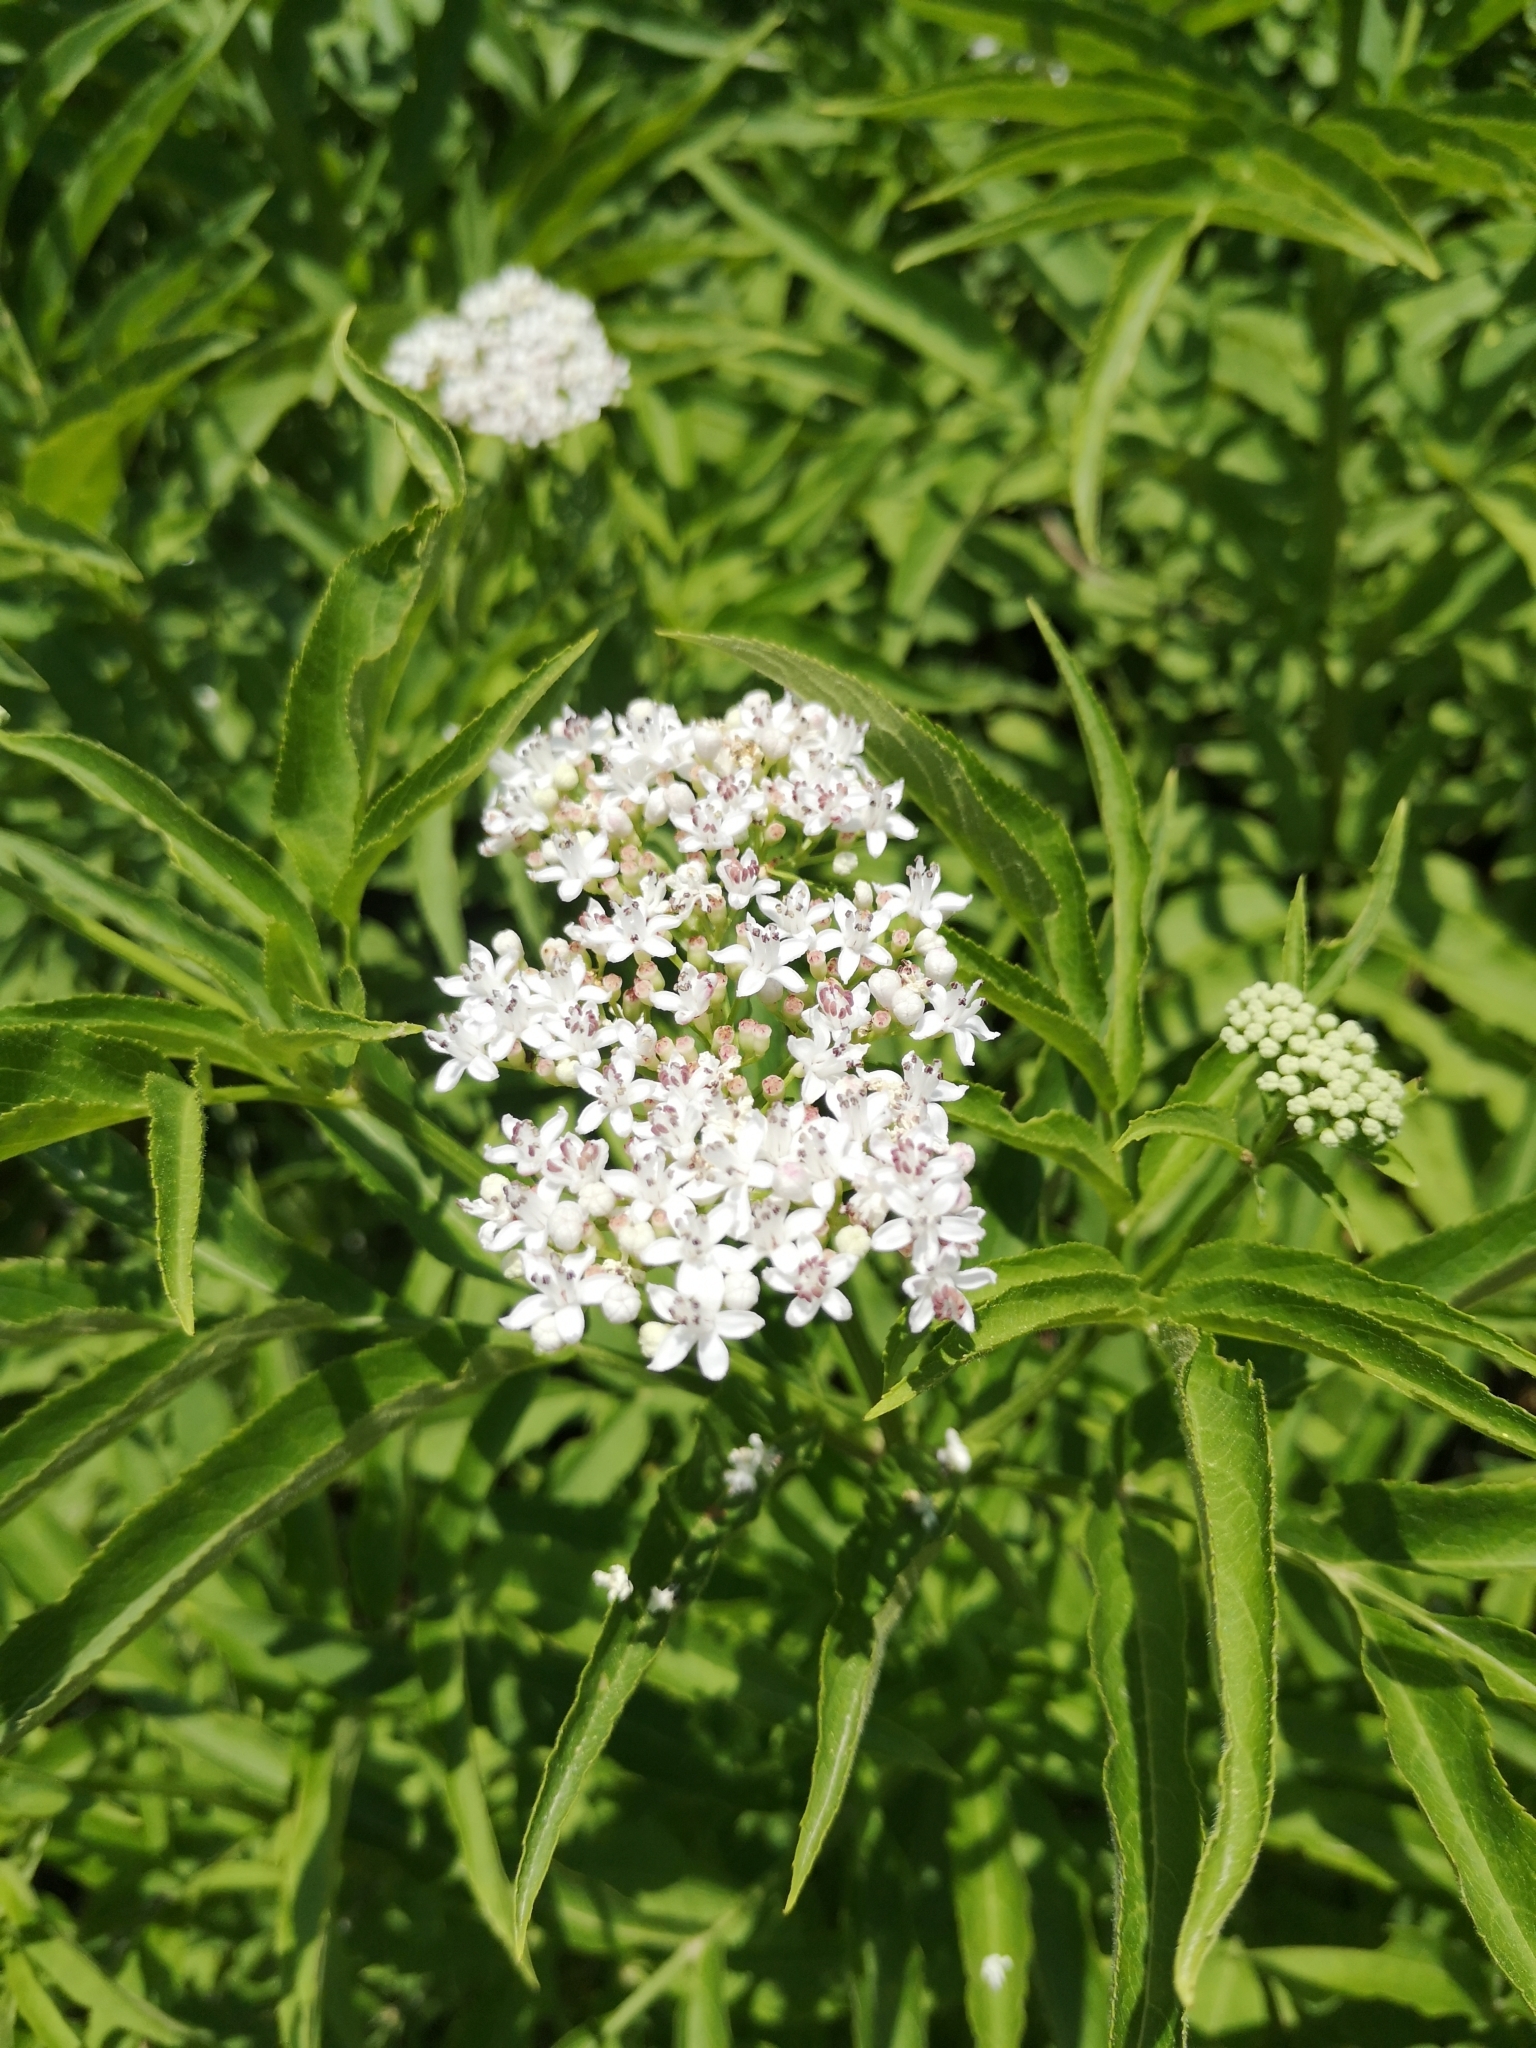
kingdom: Plantae
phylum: Tracheophyta
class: Magnoliopsida
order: Dipsacales
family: Viburnaceae
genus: Sambucus
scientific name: Sambucus ebulus
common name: Dwarf elder
